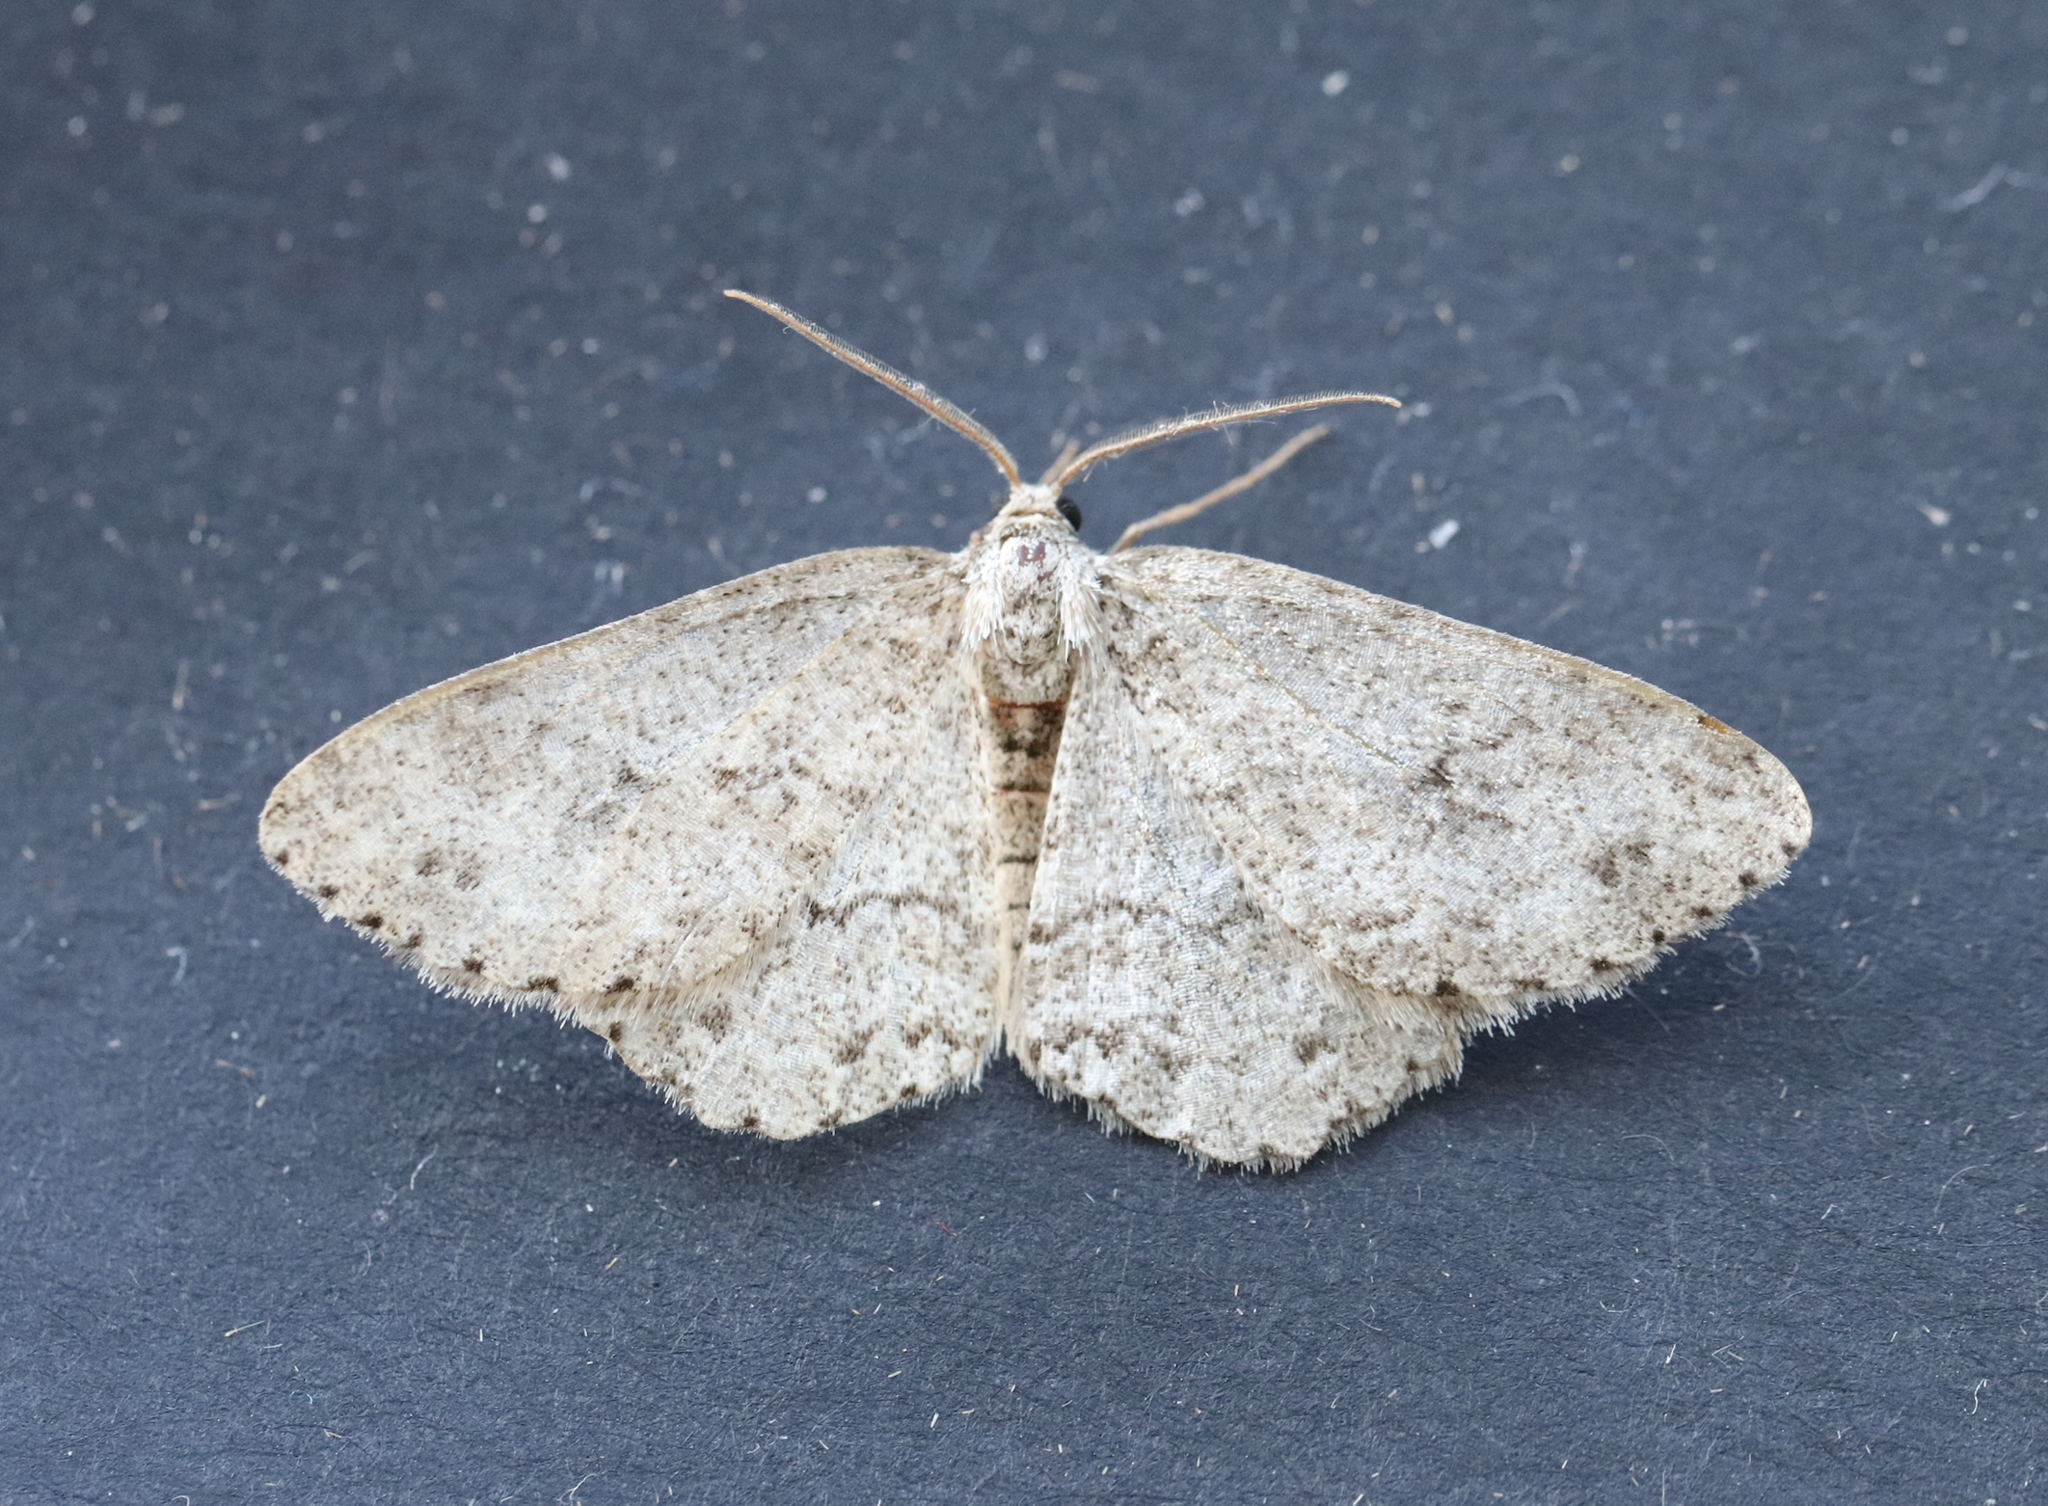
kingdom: Animalia
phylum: Arthropoda
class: Insecta
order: Lepidoptera
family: Geometridae
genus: Ectropis
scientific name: Ectropis crepuscularia
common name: Engrailed
